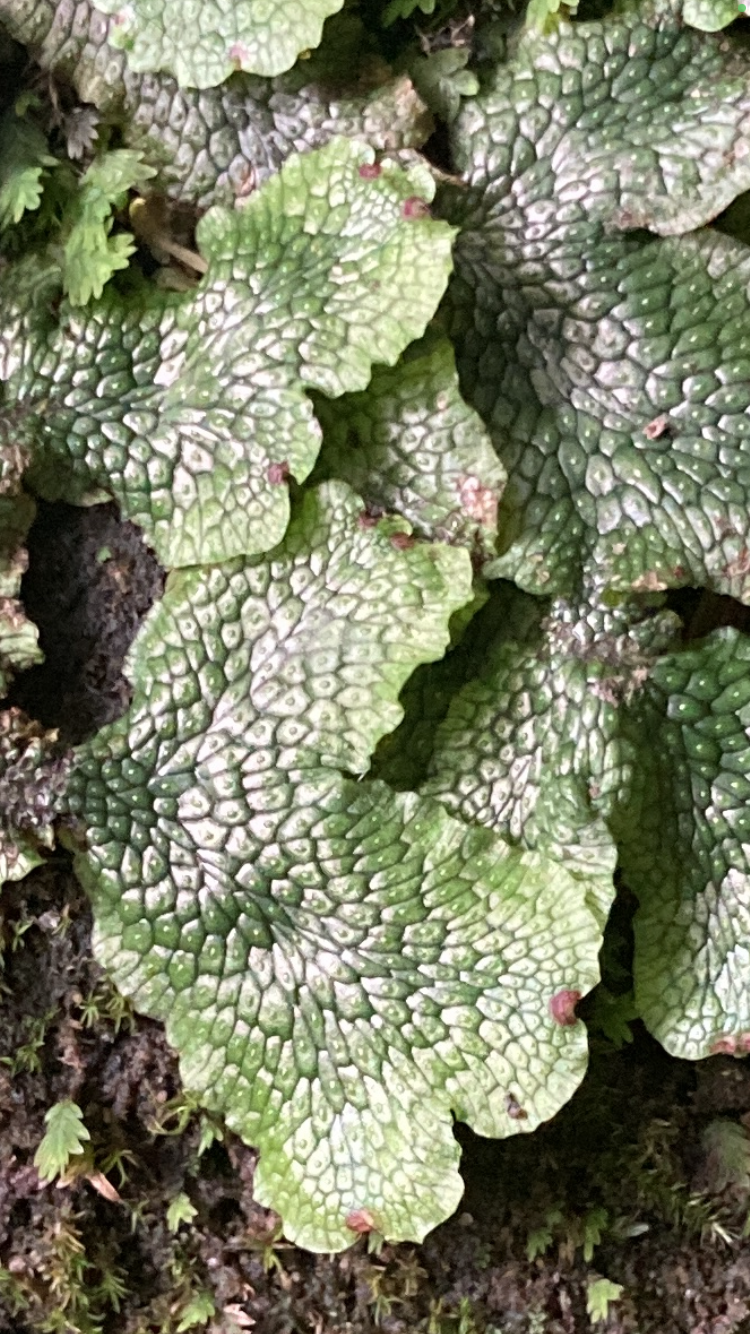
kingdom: Plantae
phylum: Marchantiophyta
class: Marchantiopsida
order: Marchantiales
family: Conocephalaceae
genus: Conocephalum
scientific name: Conocephalum salebrosum
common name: Cat-tongue liverwort
